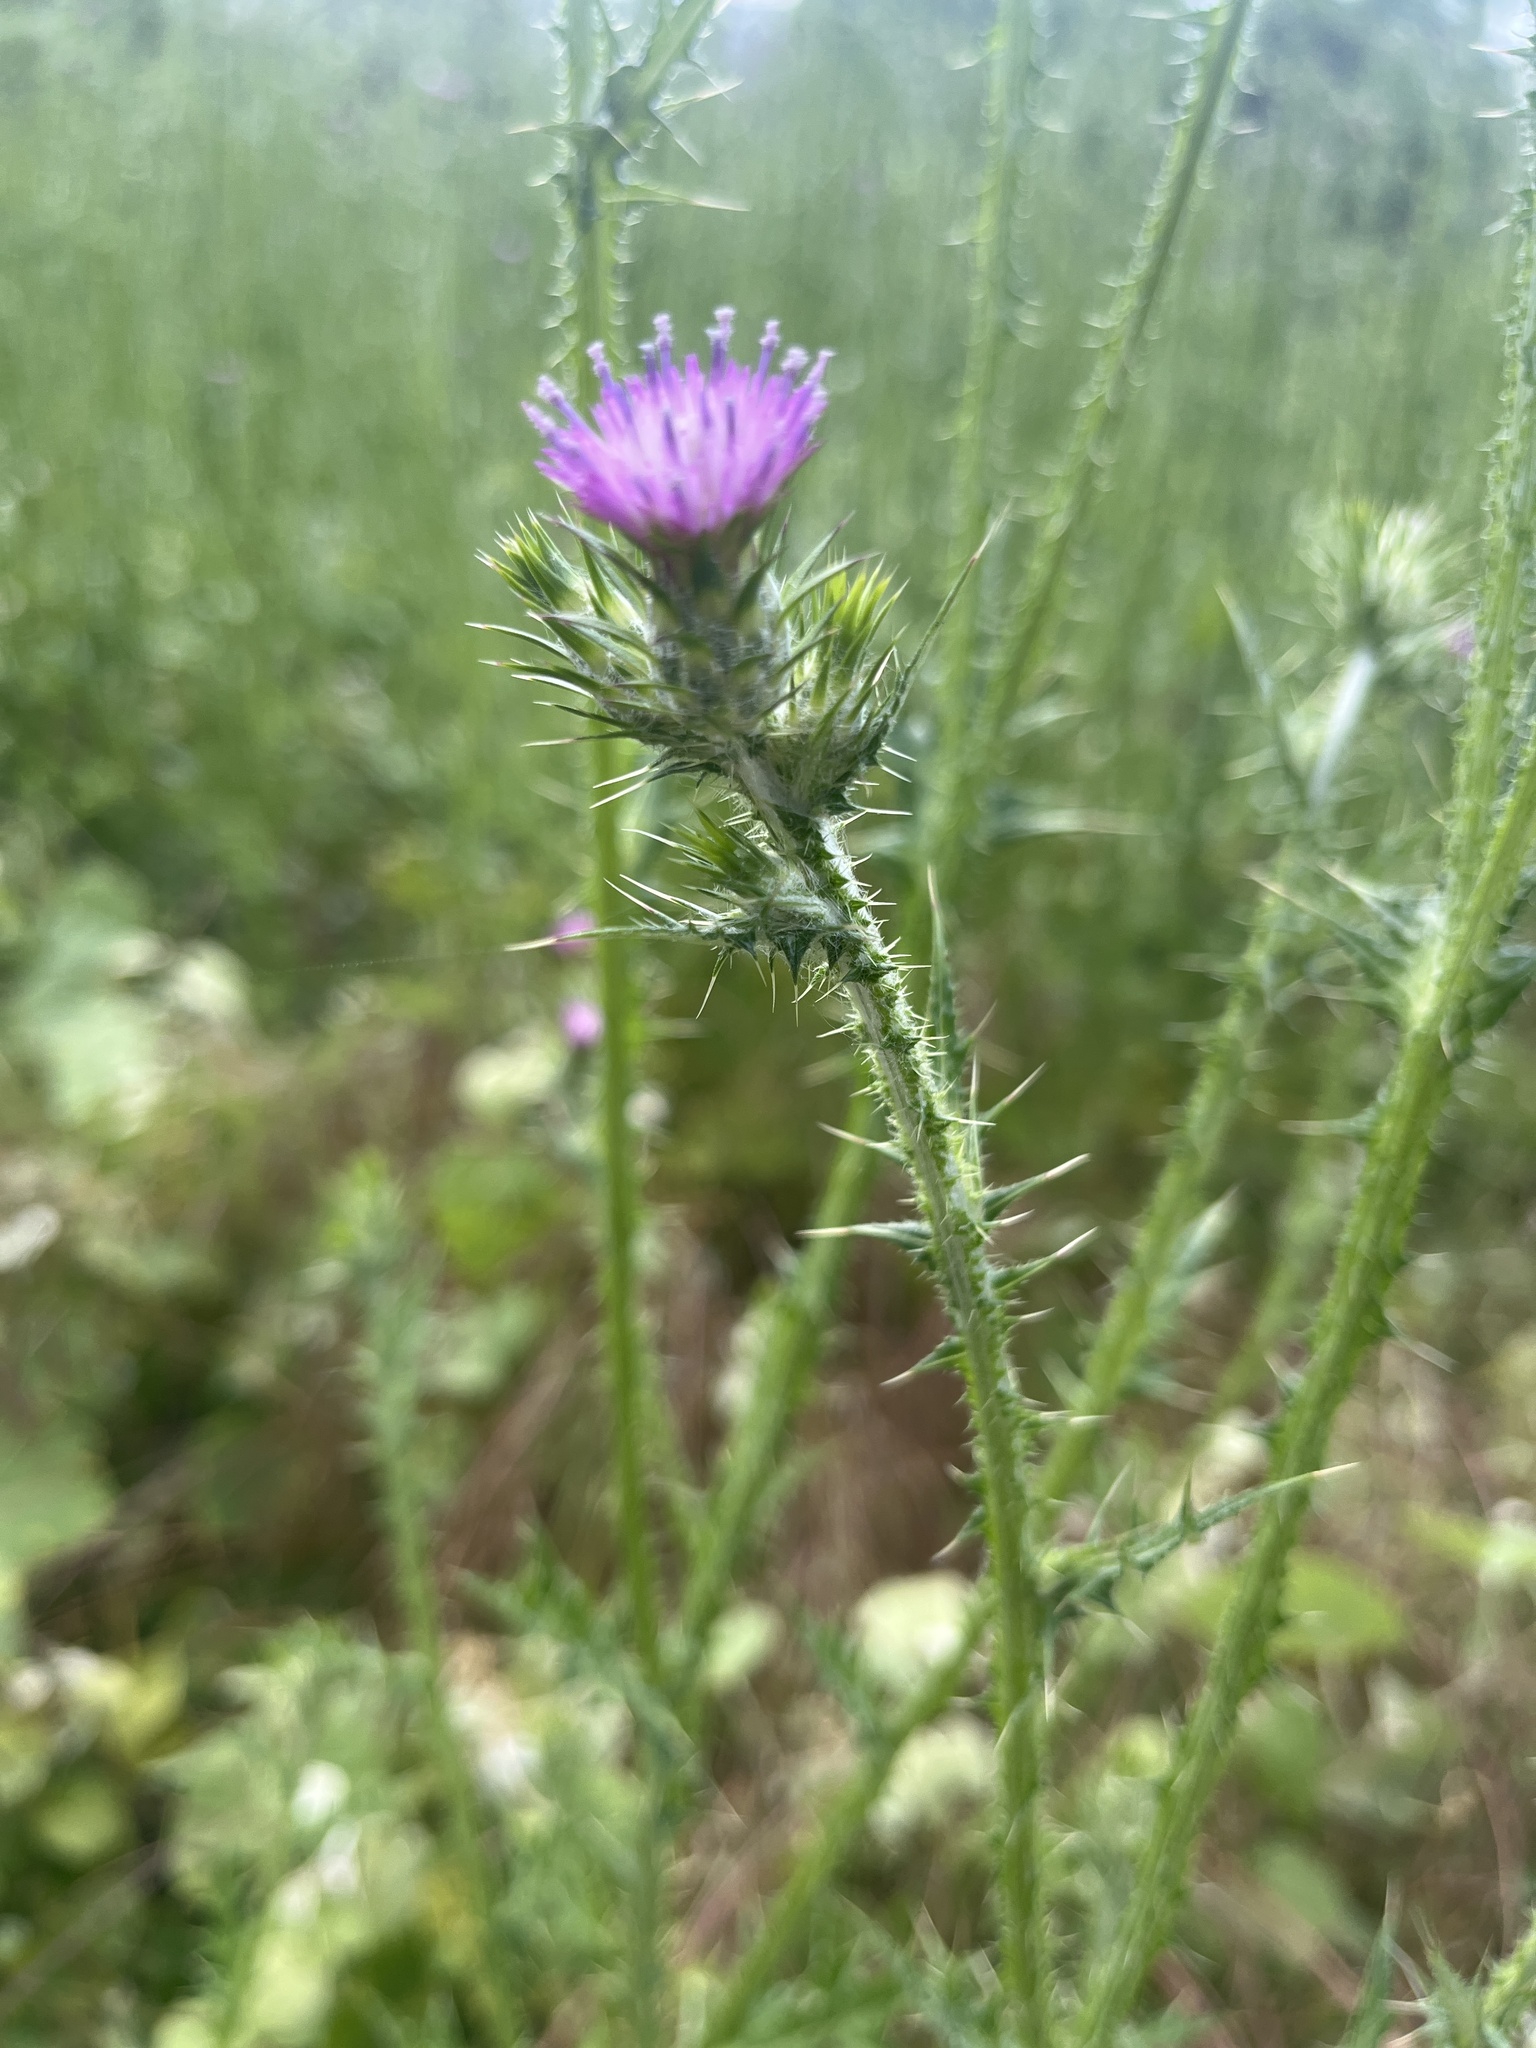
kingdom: Plantae
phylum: Tracheophyta
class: Magnoliopsida
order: Asterales
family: Asteraceae
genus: Carduus
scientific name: Carduus pycnocephalus
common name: Plymouth thistle
